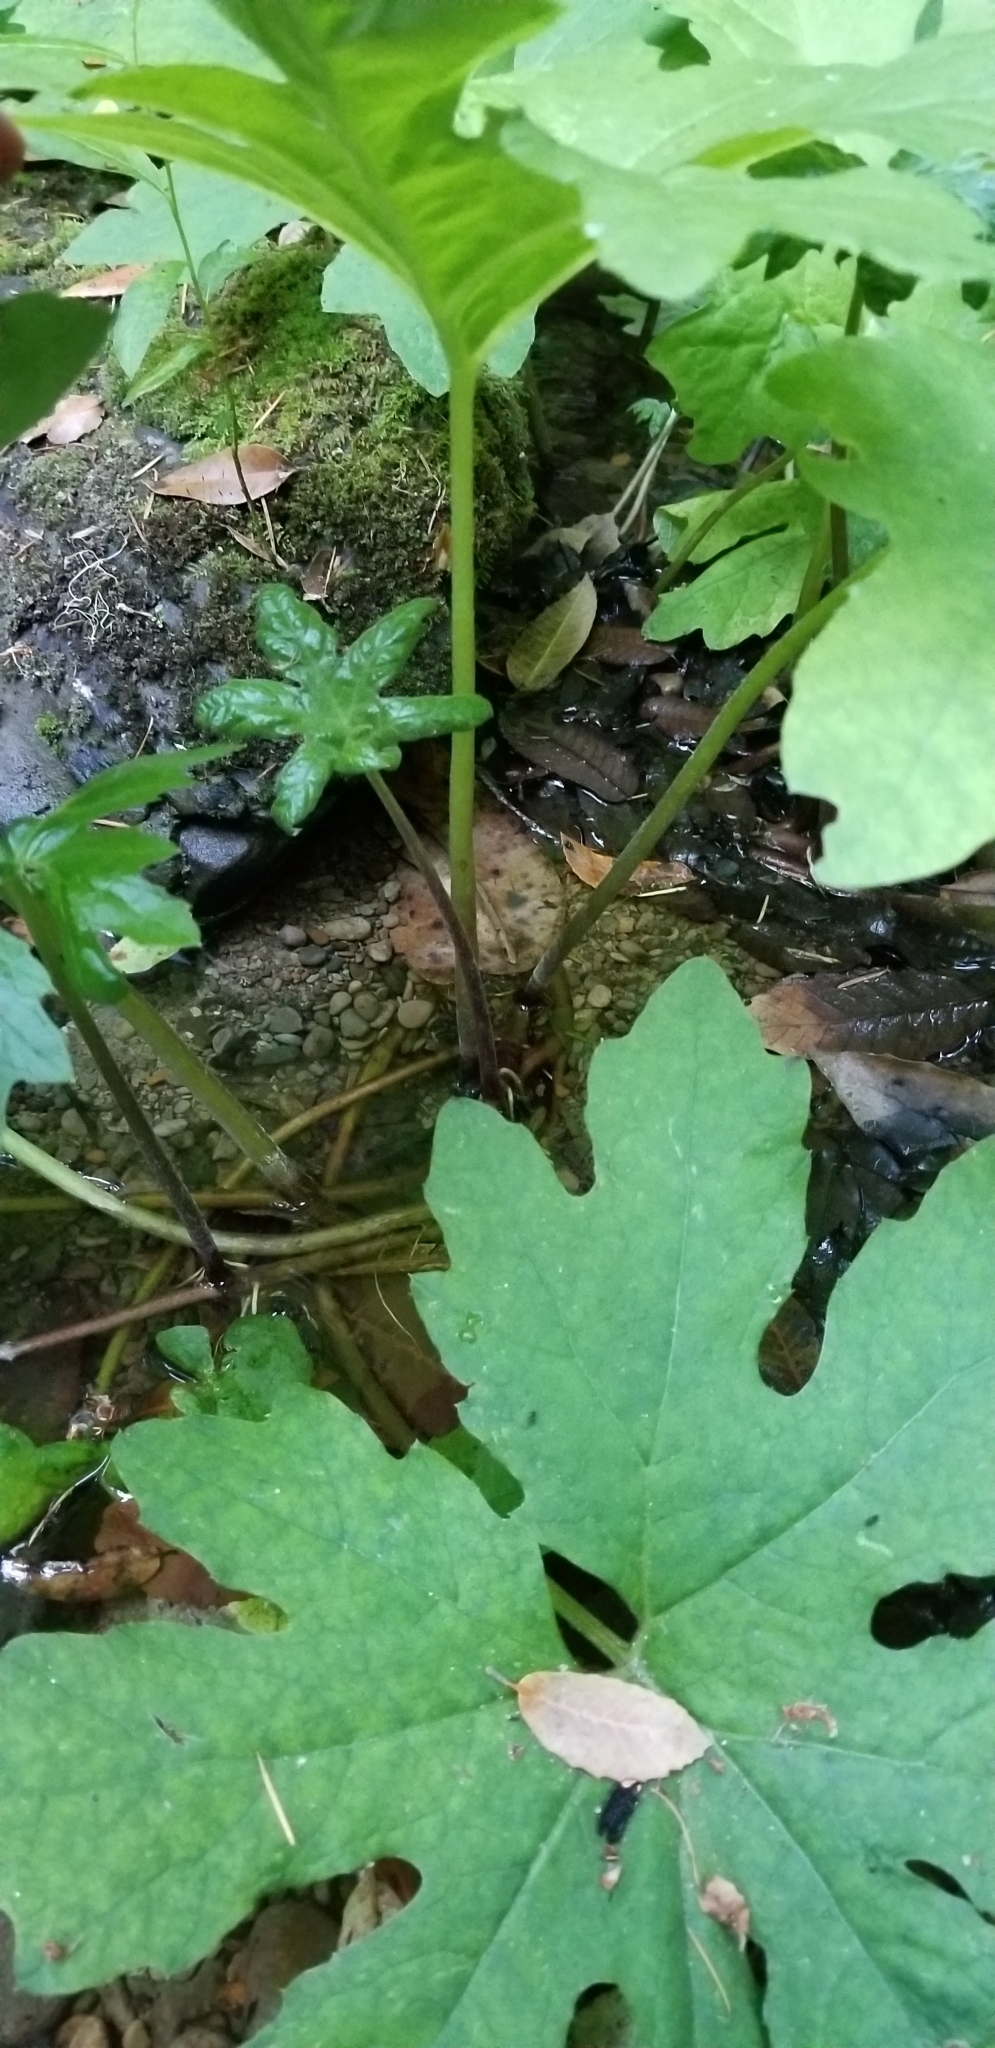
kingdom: Plantae
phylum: Tracheophyta
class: Magnoliopsida
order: Asterales
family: Asteraceae
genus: Petasites
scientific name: Petasites frigidus
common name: Arctic butterbur
